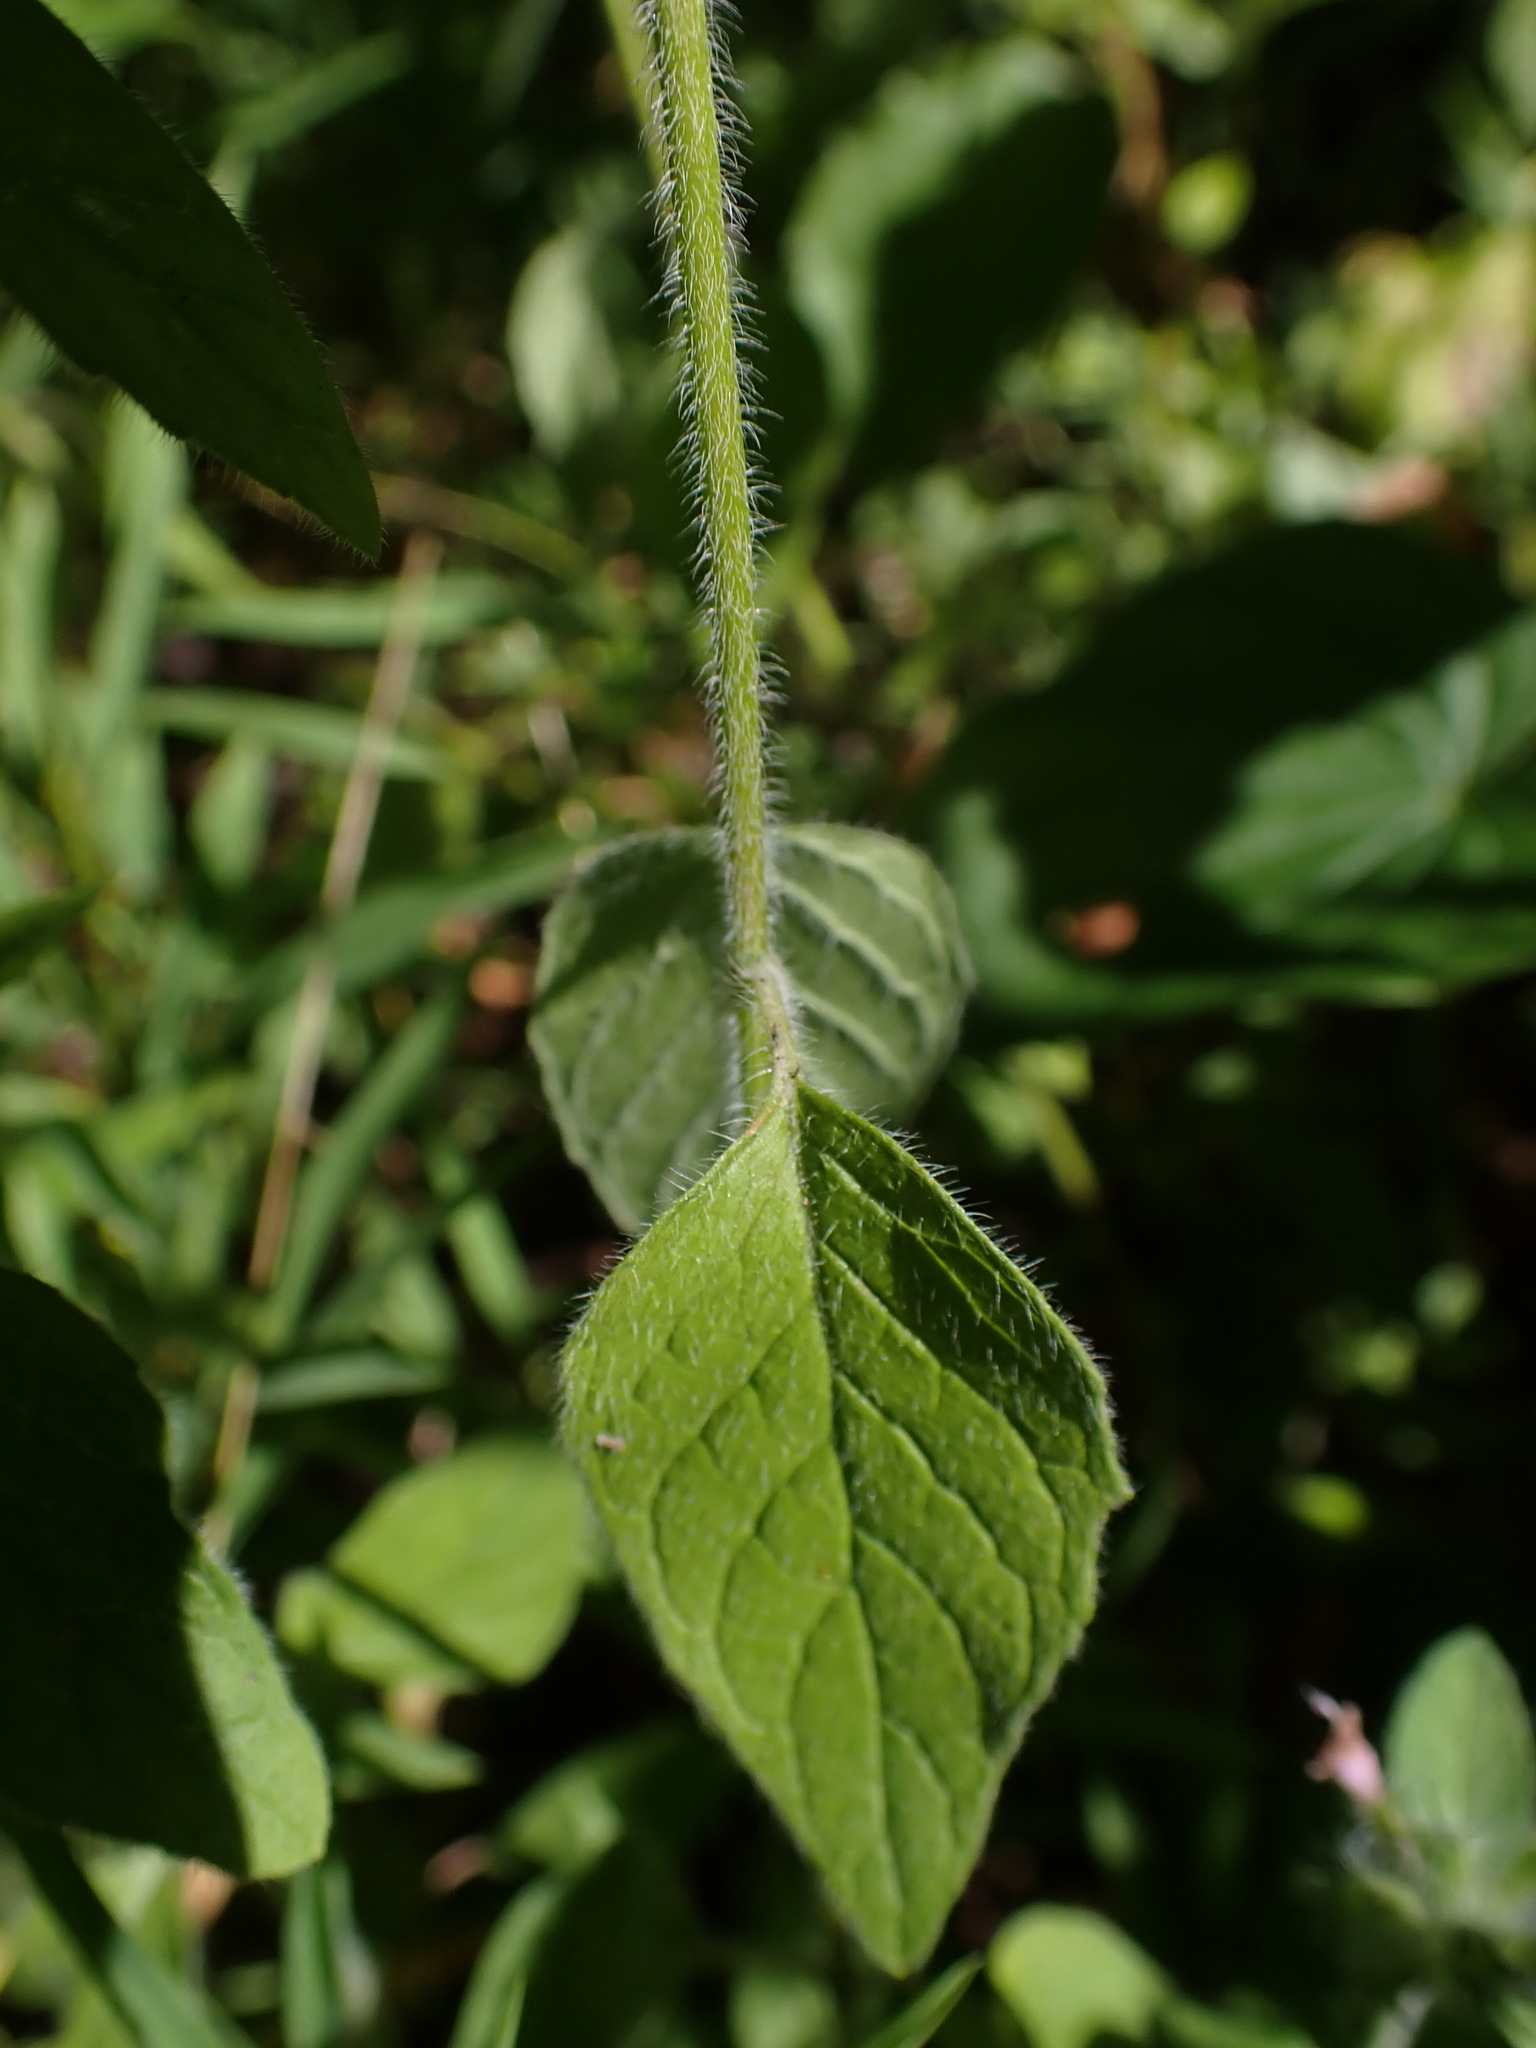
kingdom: Plantae
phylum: Tracheophyta
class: Magnoliopsida
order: Lamiales
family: Lamiaceae
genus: Clinopodium
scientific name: Clinopodium vulgare
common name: Wild basil
